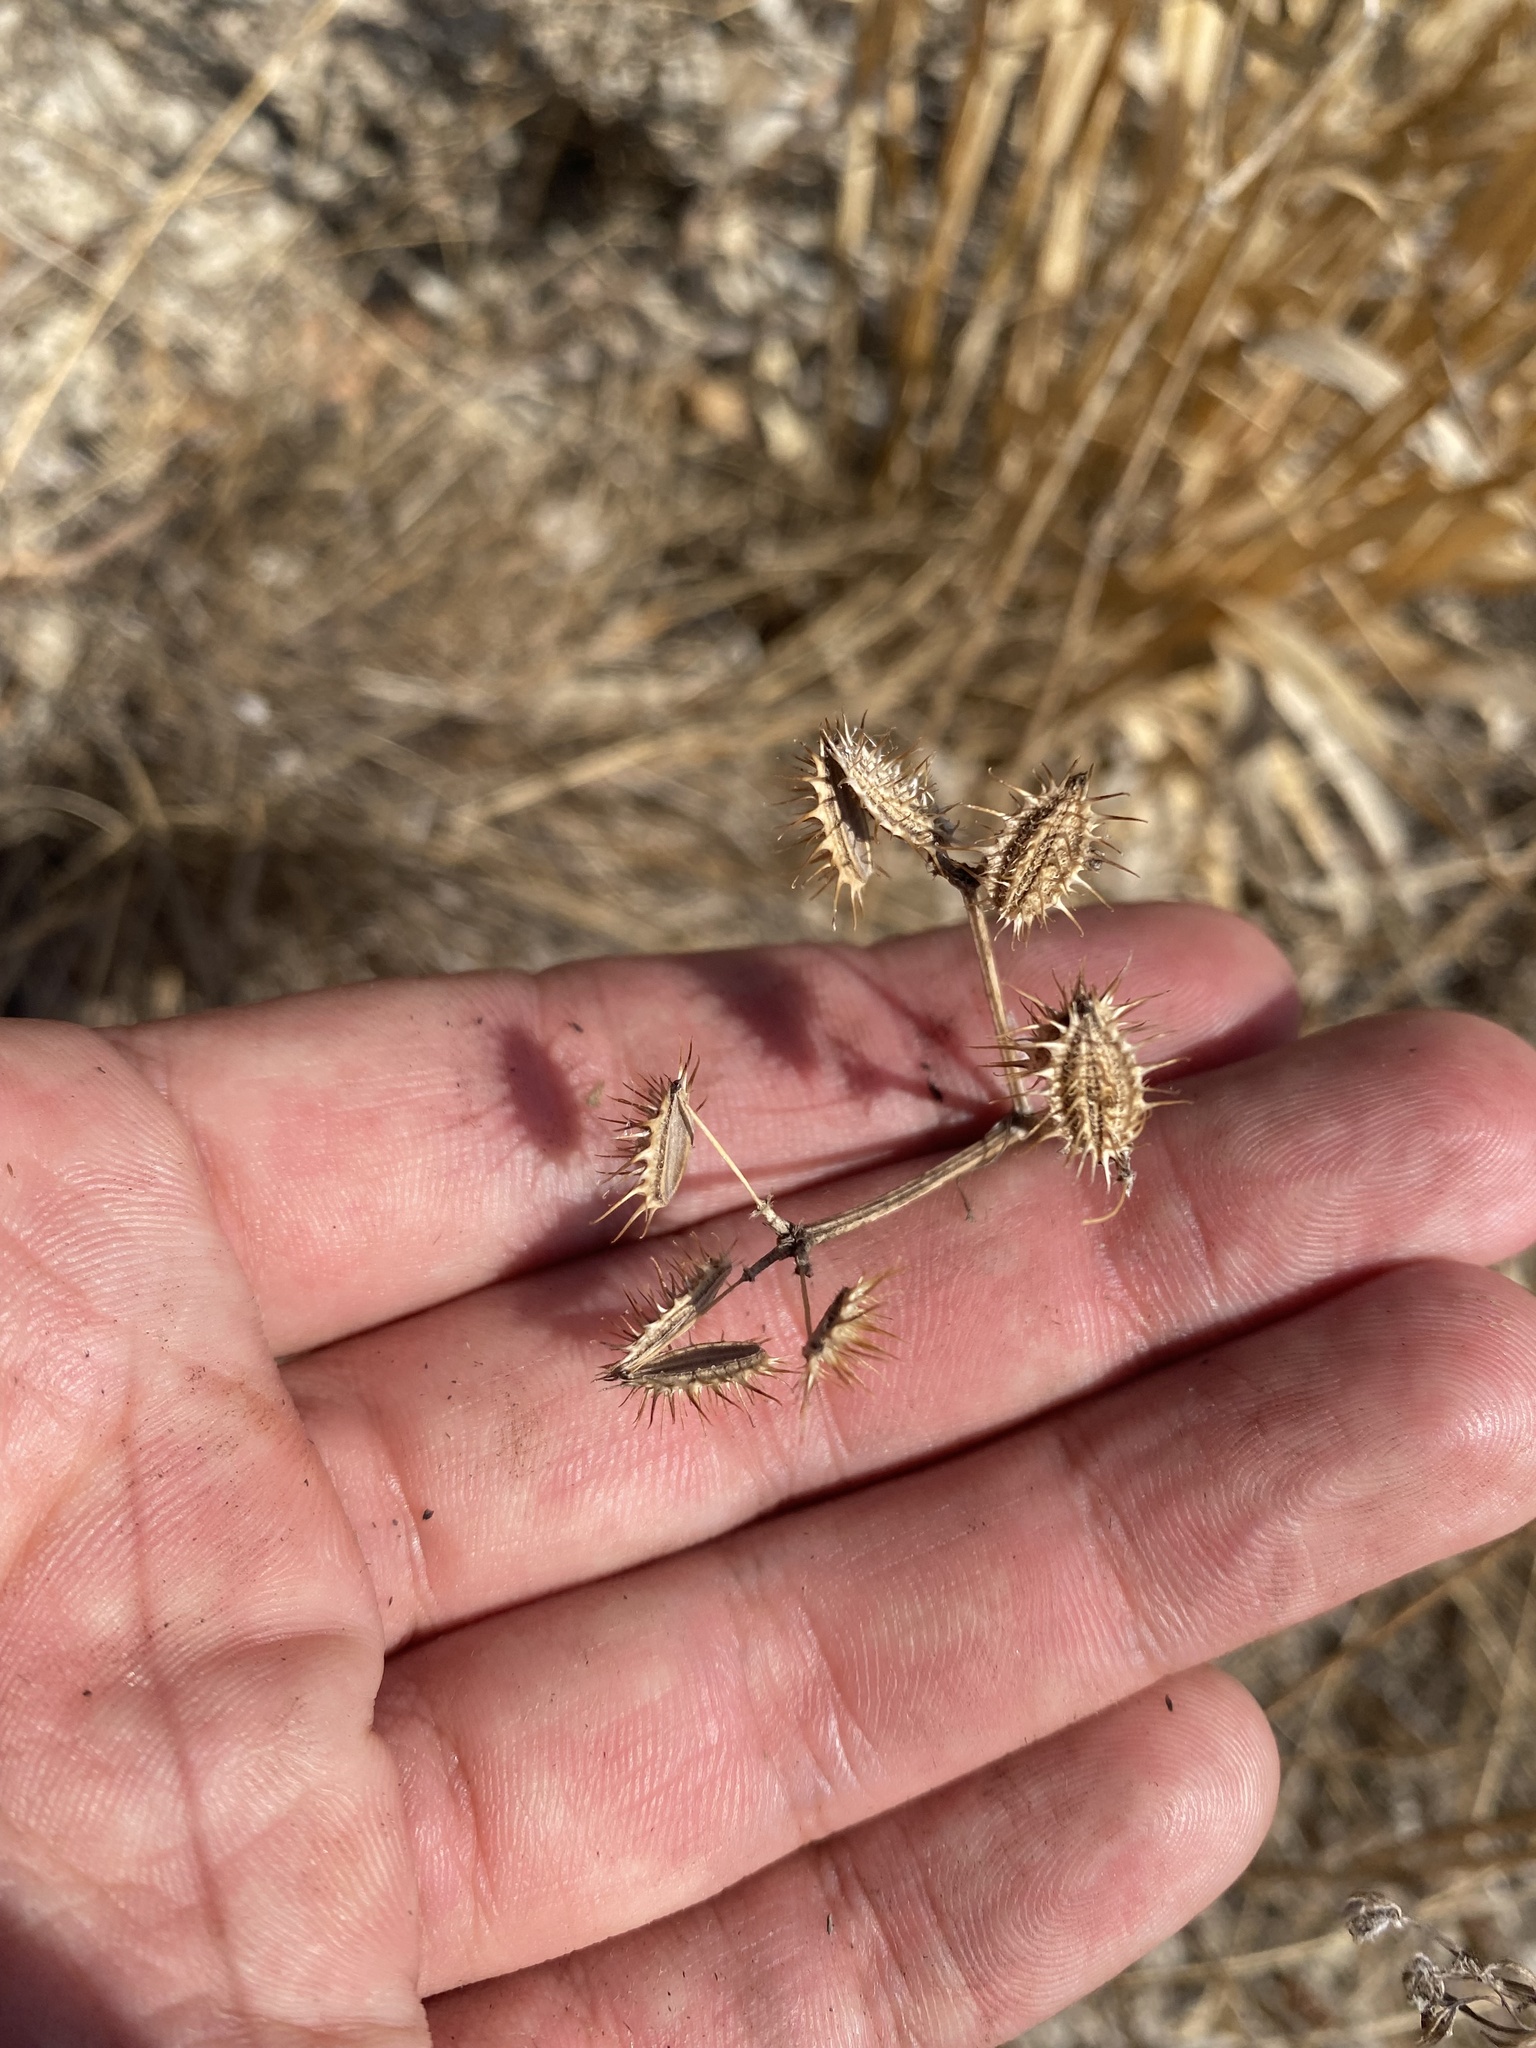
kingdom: Plantae
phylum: Tracheophyta
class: Magnoliopsida
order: Apiales
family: Apiaceae
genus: Orlaya
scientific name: Orlaya daucoides
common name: Flat-fruit orlaya
